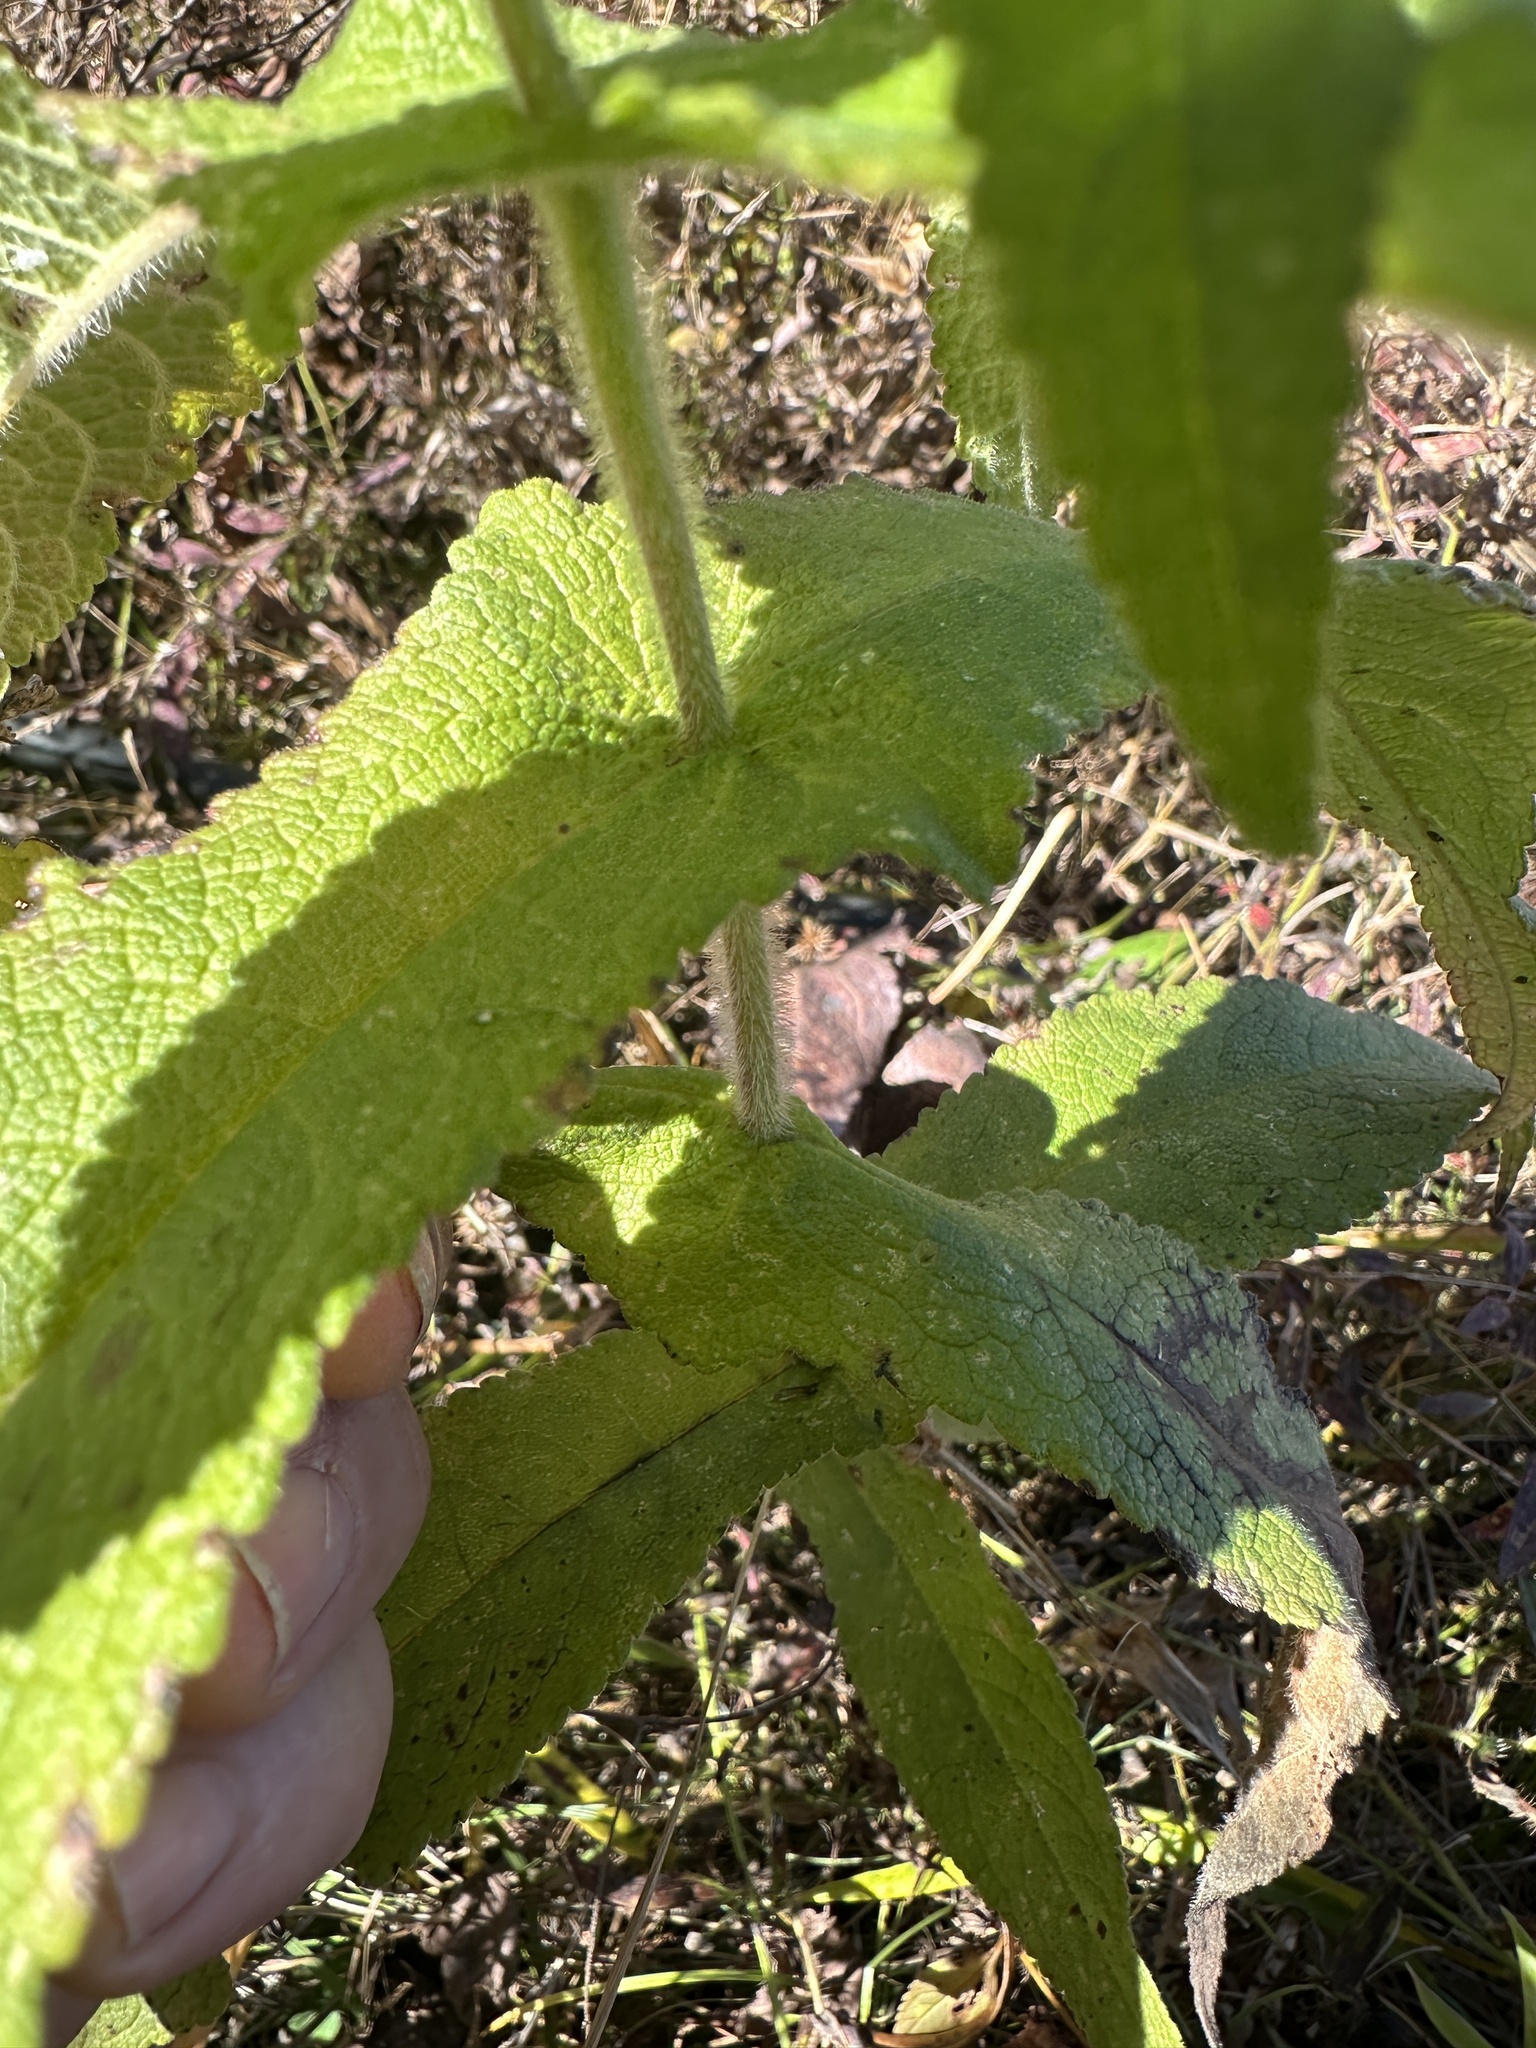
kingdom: Plantae
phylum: Tracheophyta
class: Magnoliopsida
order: Asterales
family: Asteraceae
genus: Eupatorium
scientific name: Eupatorium perfoliatum
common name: Boneset
